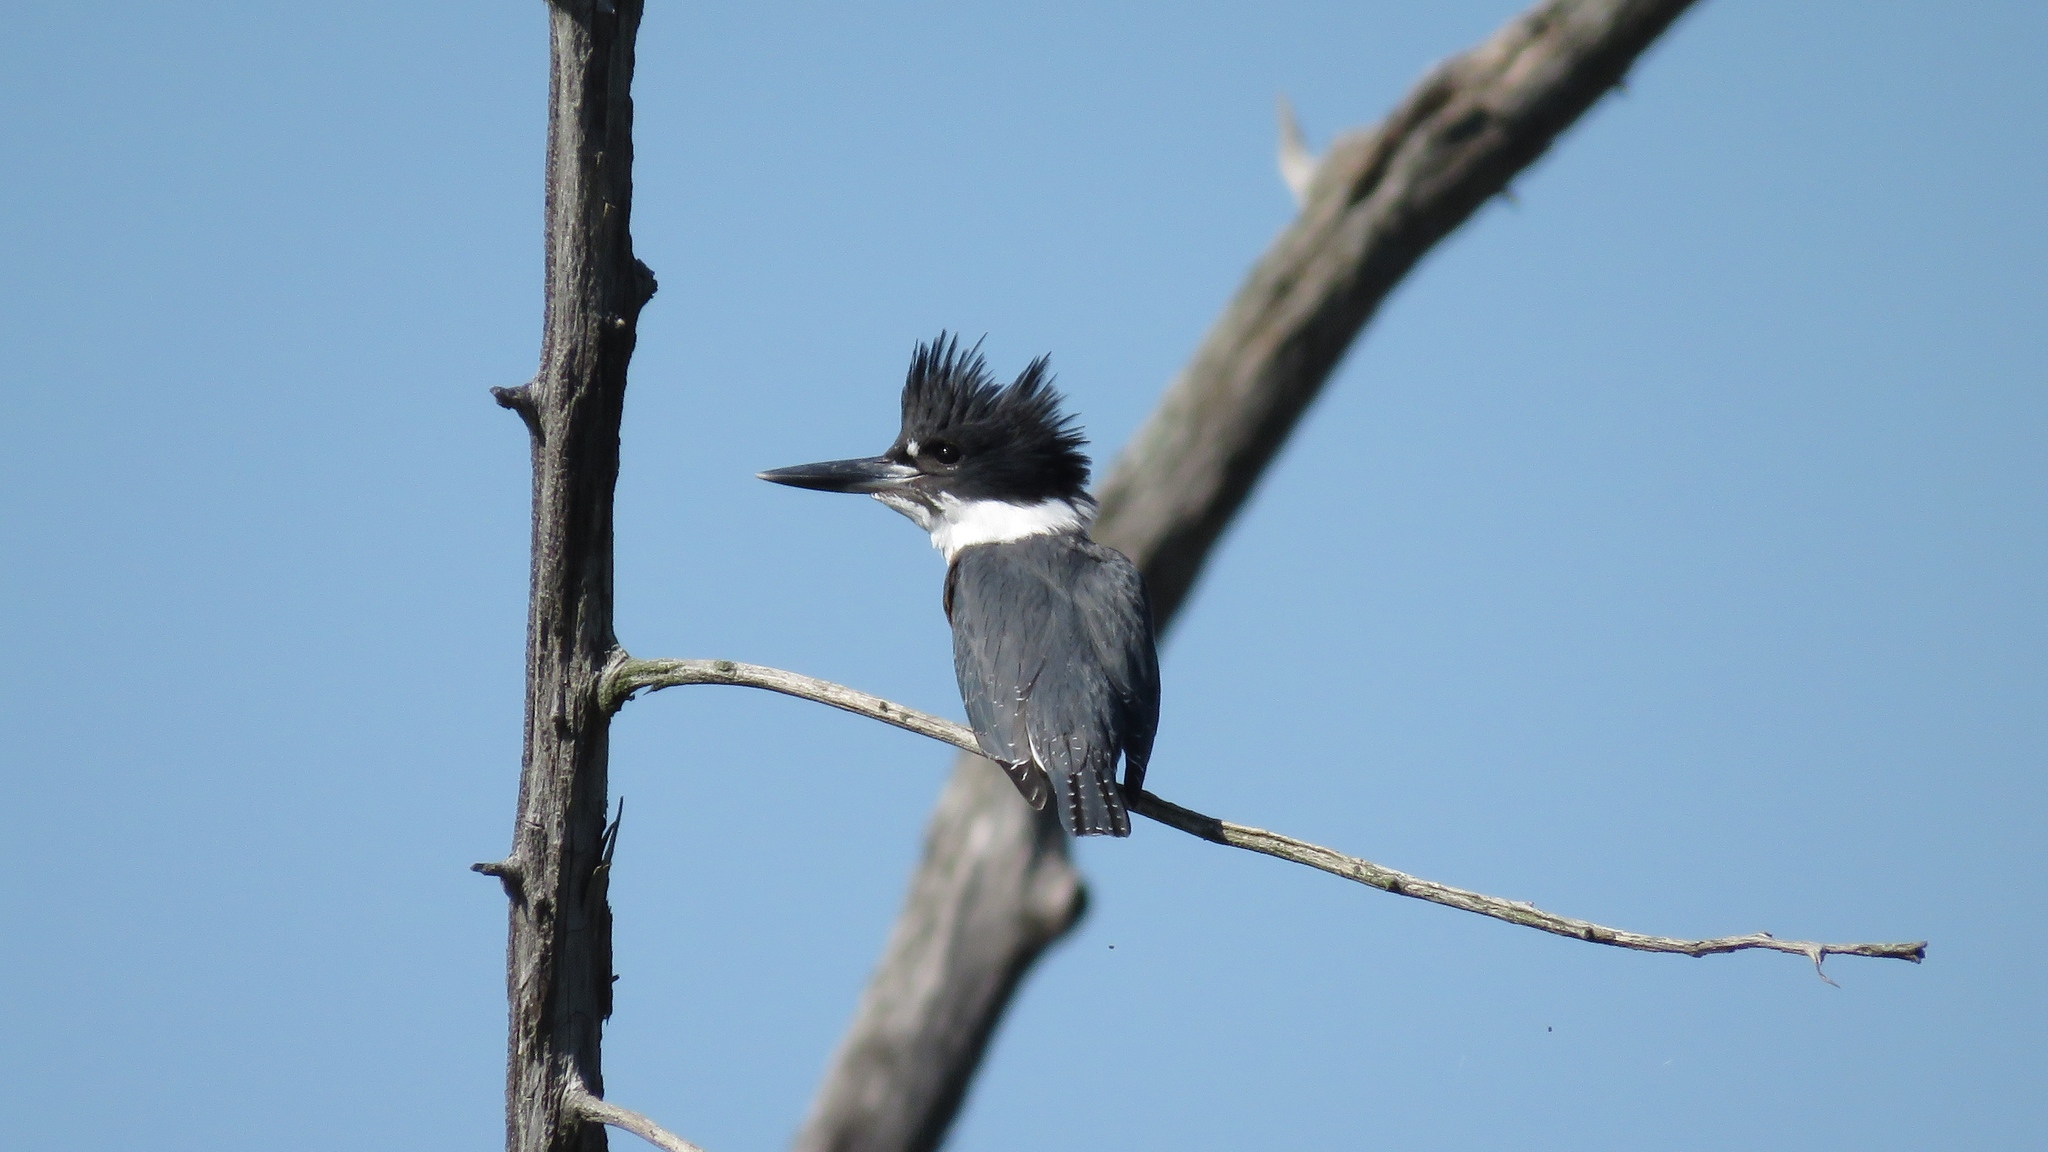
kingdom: Animalia
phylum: Chordata
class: Aves
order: Coraciiformes
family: Alcedinidae
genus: Megaceryle
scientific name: Megaceryle alcyon
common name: Belted kingfisher
